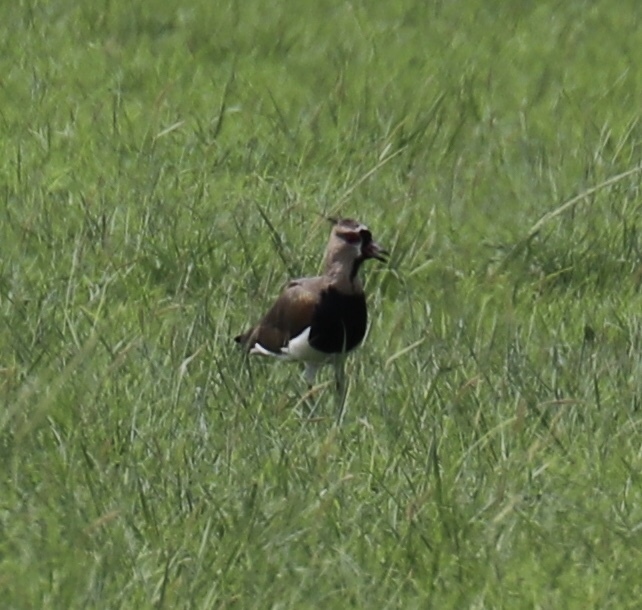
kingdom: Animalia
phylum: Chordata
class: Aves
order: Charadriiformes
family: Charadriidae
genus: Vanellus
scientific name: Vanellus chilensis
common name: Southern lapwing
